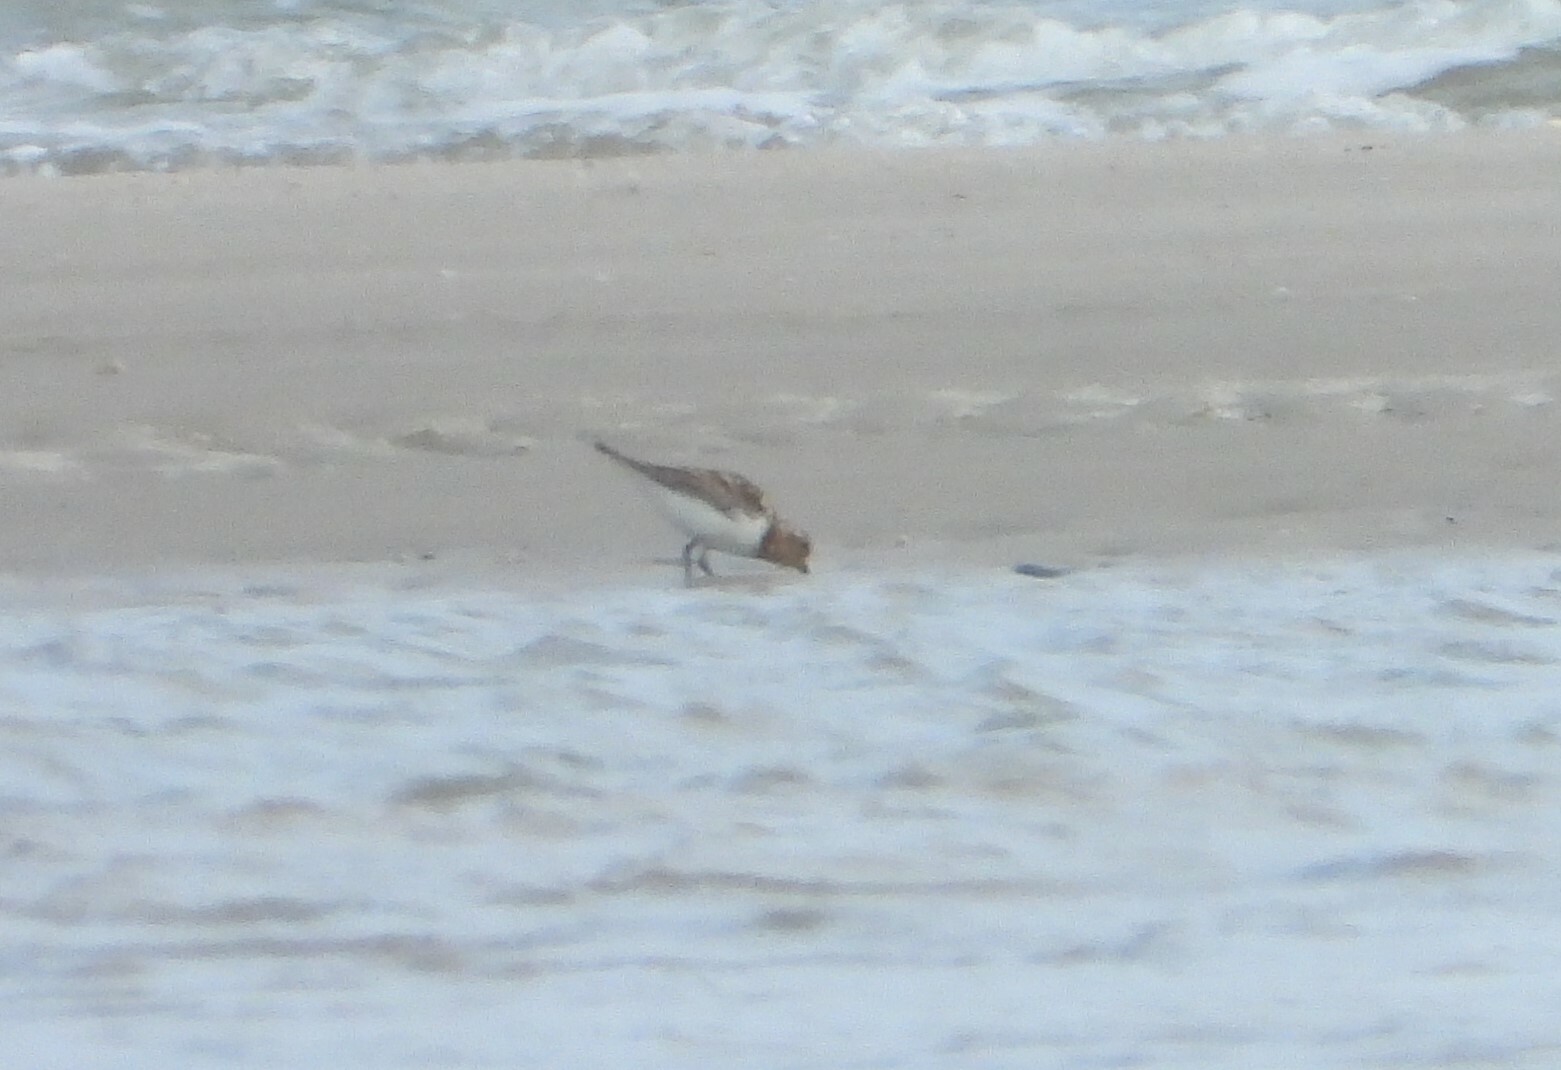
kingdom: Animalia
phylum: Chordata
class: Aves
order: Charadriiformes
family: Scolopacidae
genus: Calidris
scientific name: Calidris alba
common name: Sanderling
